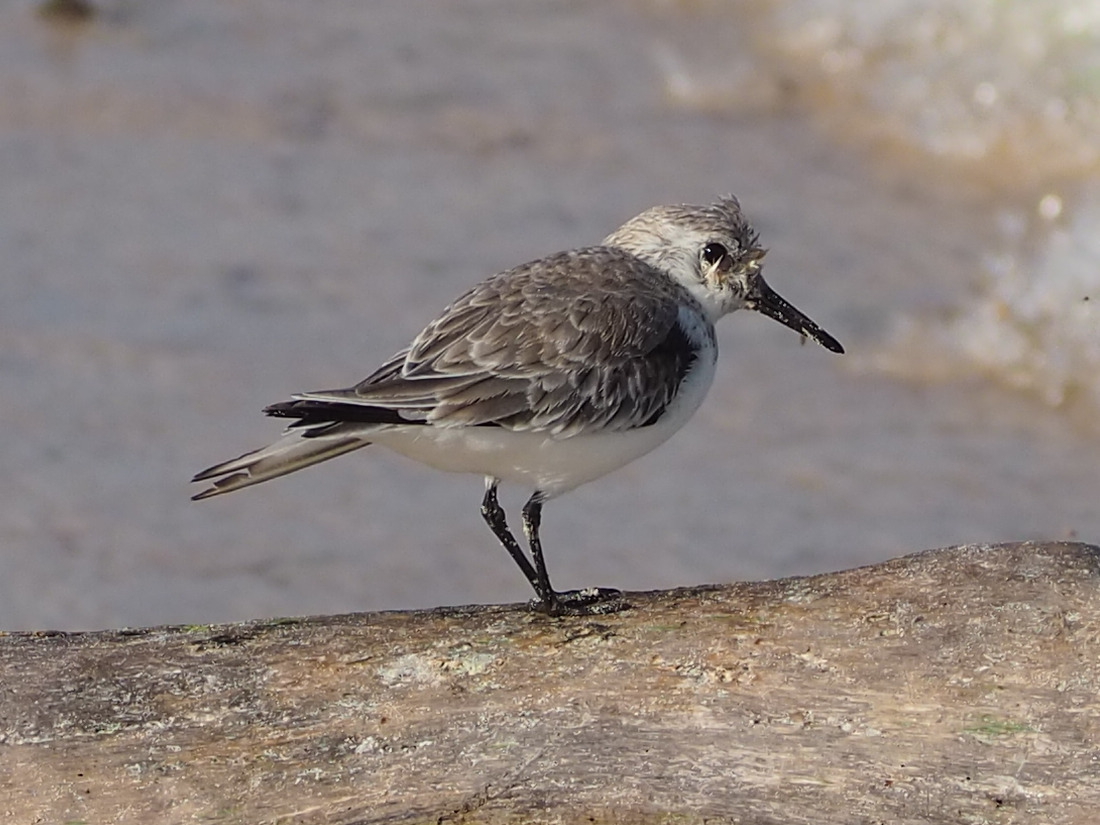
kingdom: Animalia
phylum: Chordata
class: Aves
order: Charadriiformes
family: Scolopacidae
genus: Calidris
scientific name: Calidris alba
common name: Sanderling
